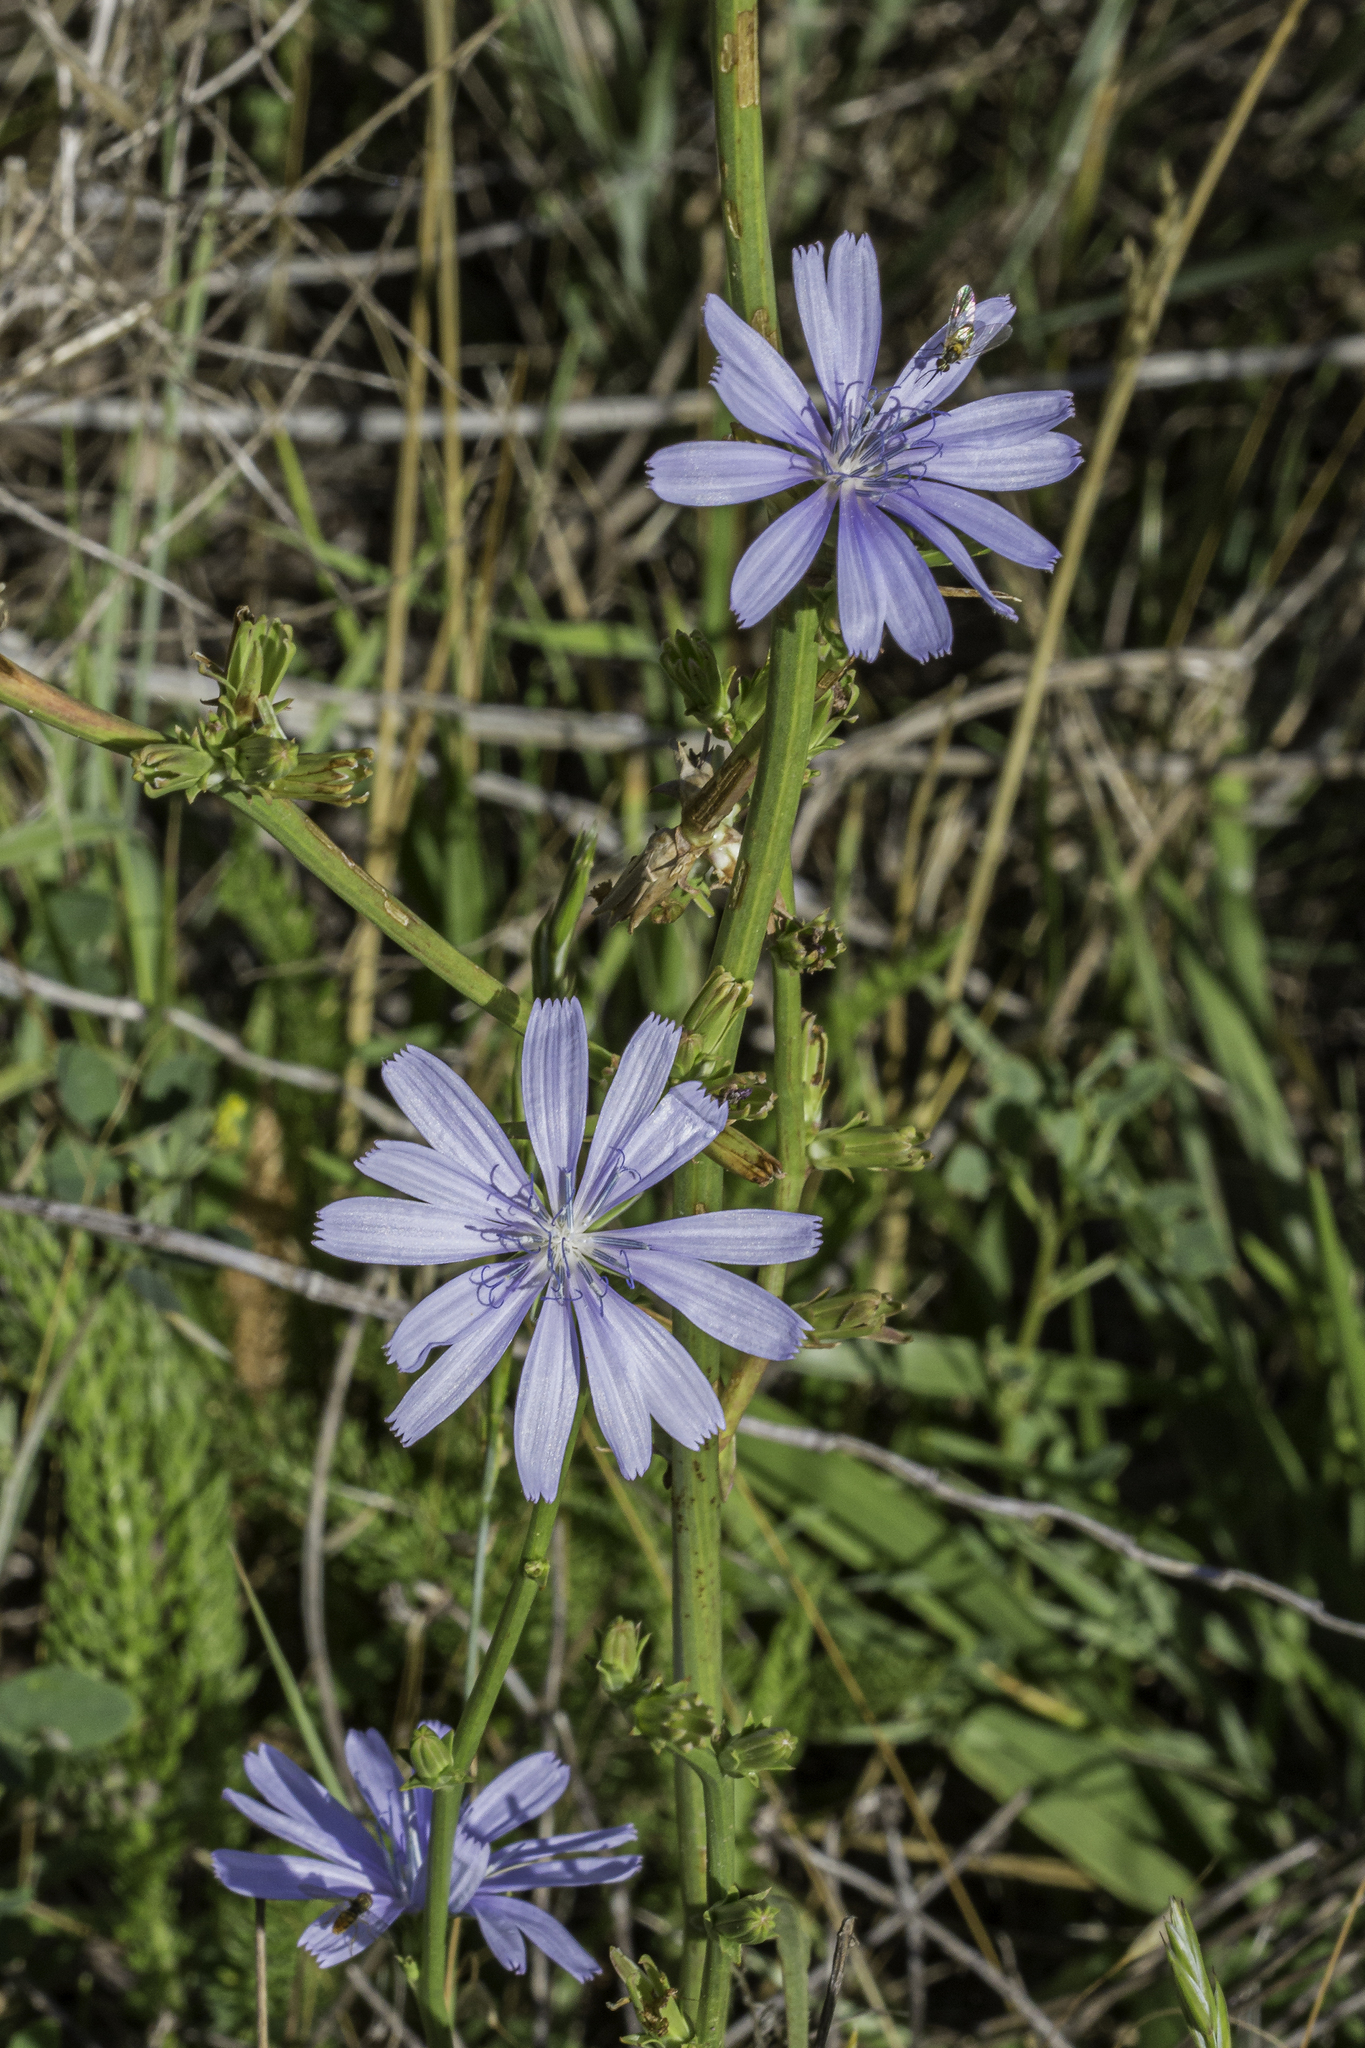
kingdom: Plantae
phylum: Tracheophyta
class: Magnoliopsida
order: Asterales
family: Asteraceae
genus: Cichorium
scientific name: Cichorium intybus
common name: Chicory
